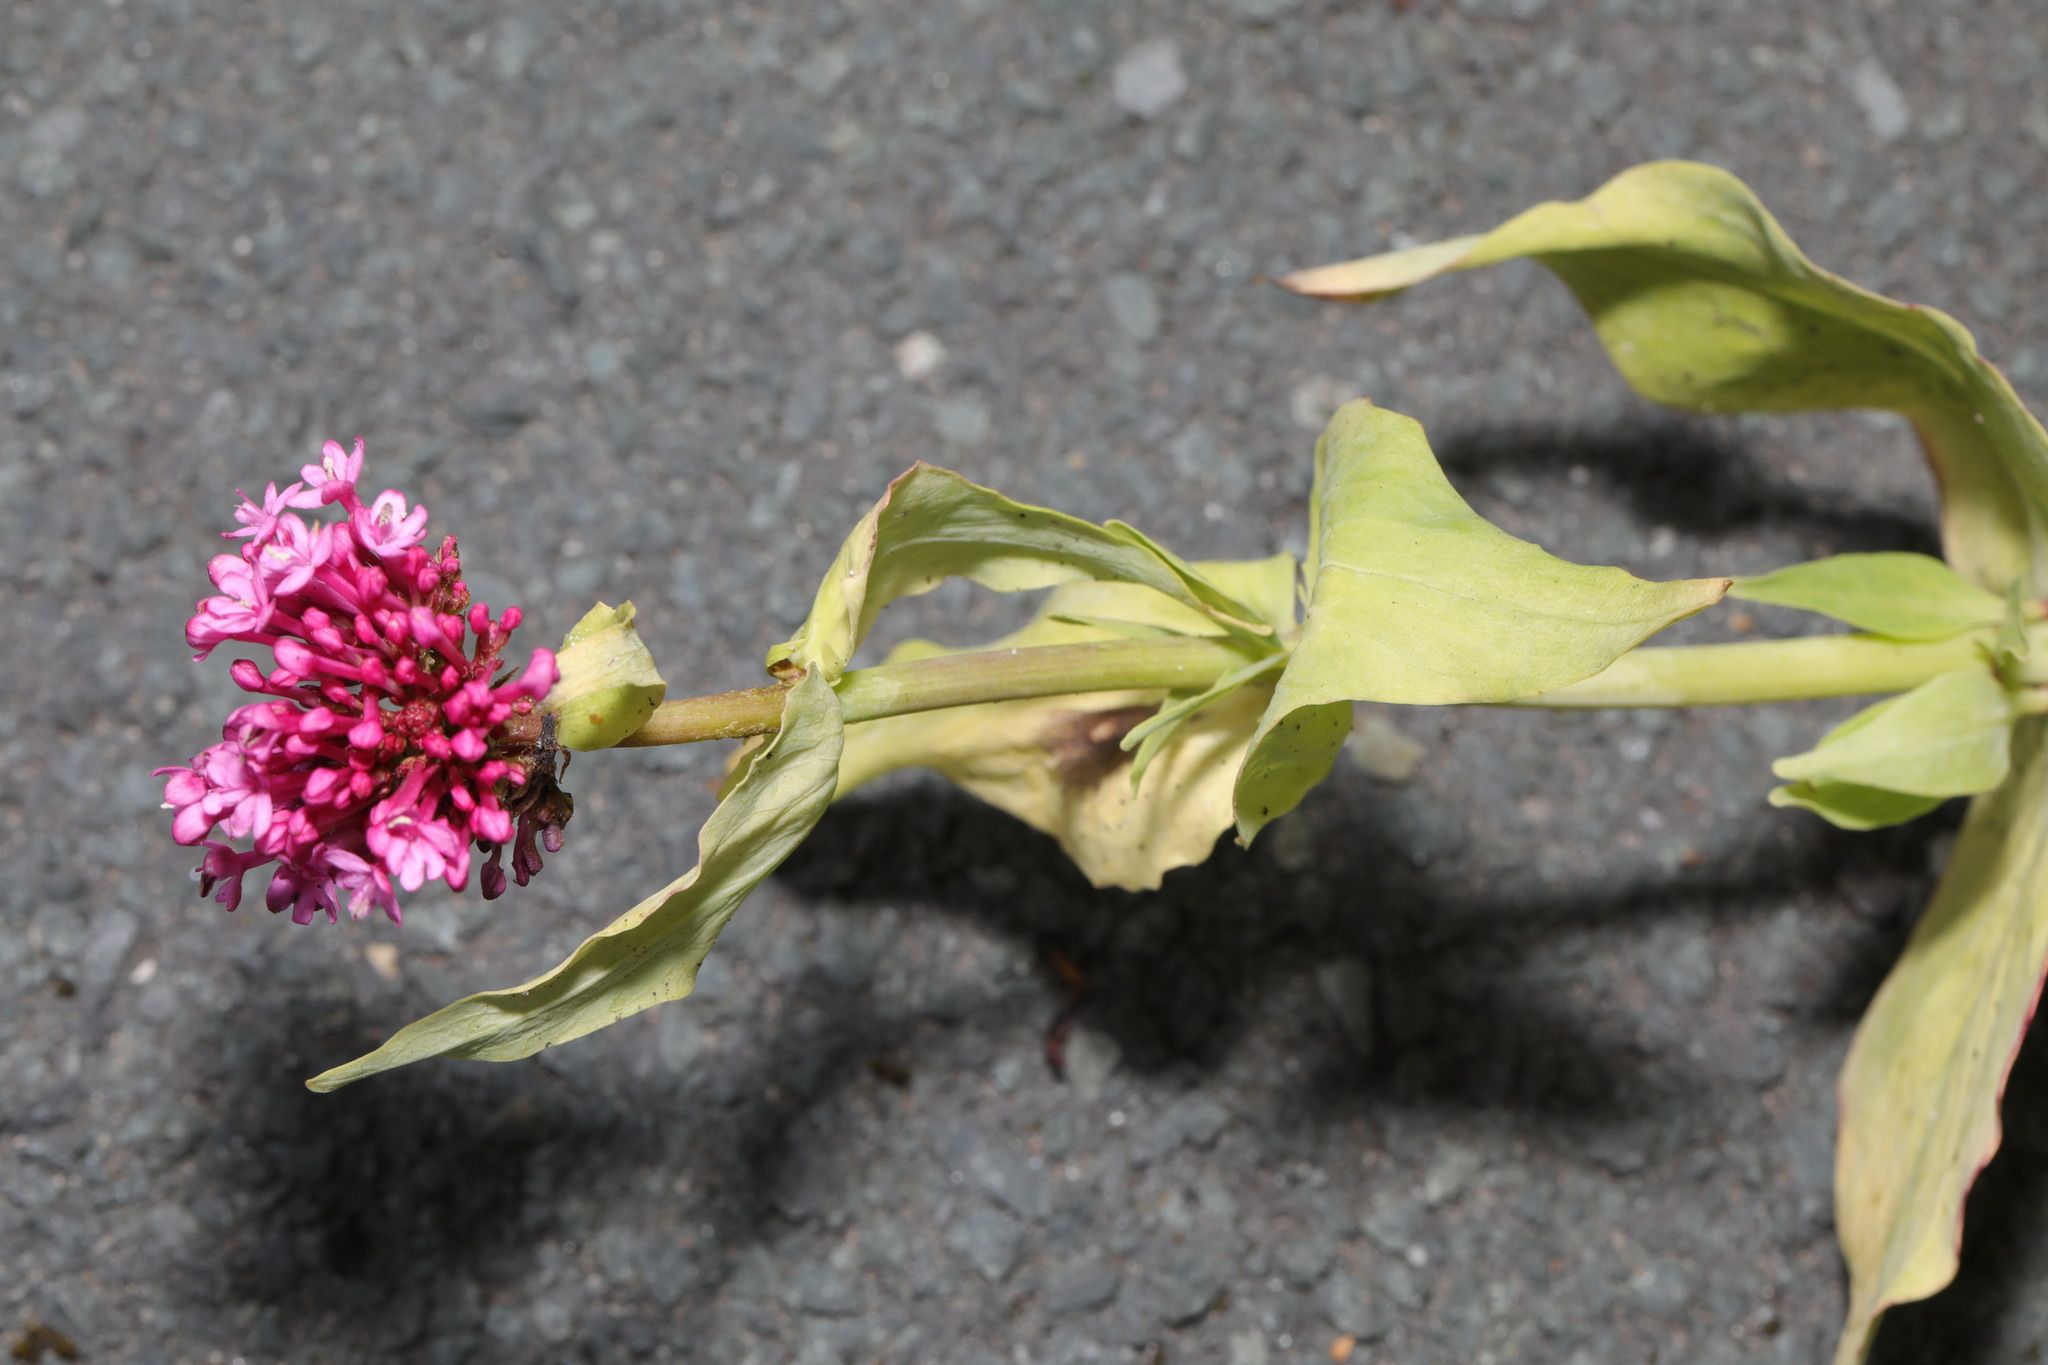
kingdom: Plantae
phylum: Tracheophyta
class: Magnoliopsida
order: Dipsacales
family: Caprifoliaceae
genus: Centranthus
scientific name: Centranthus ruber
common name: Red valerian
